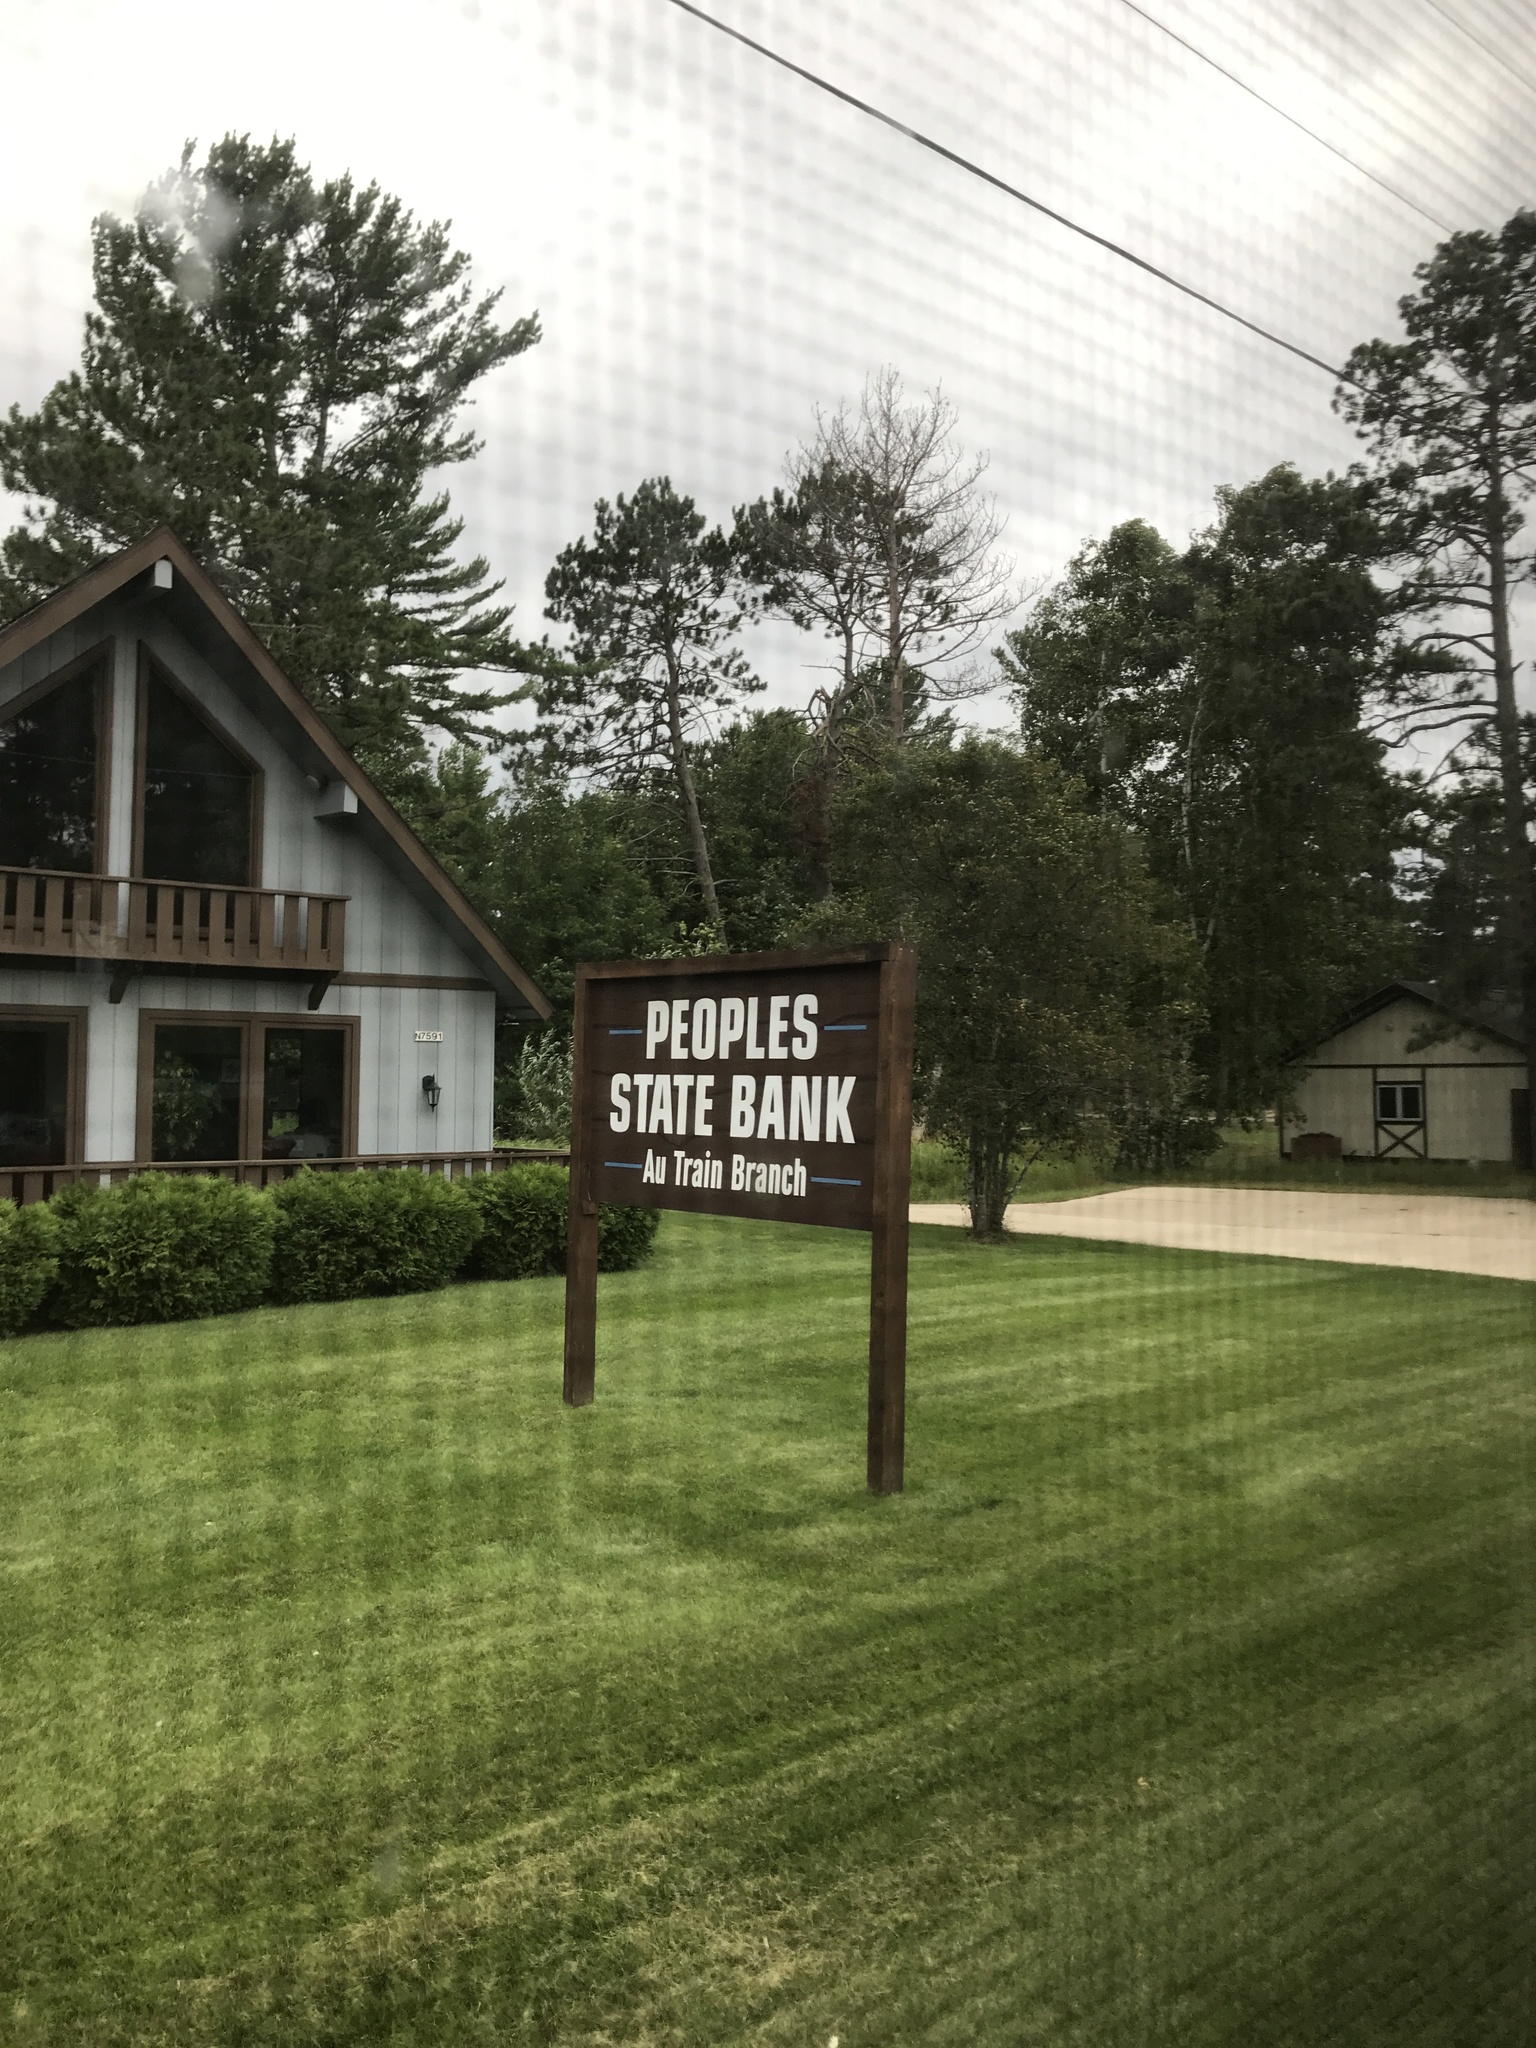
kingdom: Plantae
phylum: Tracheophyta
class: Pinopsida
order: Pinales
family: Pinaceae
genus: Pinus
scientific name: Pinus strobus
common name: Weymouth pine
